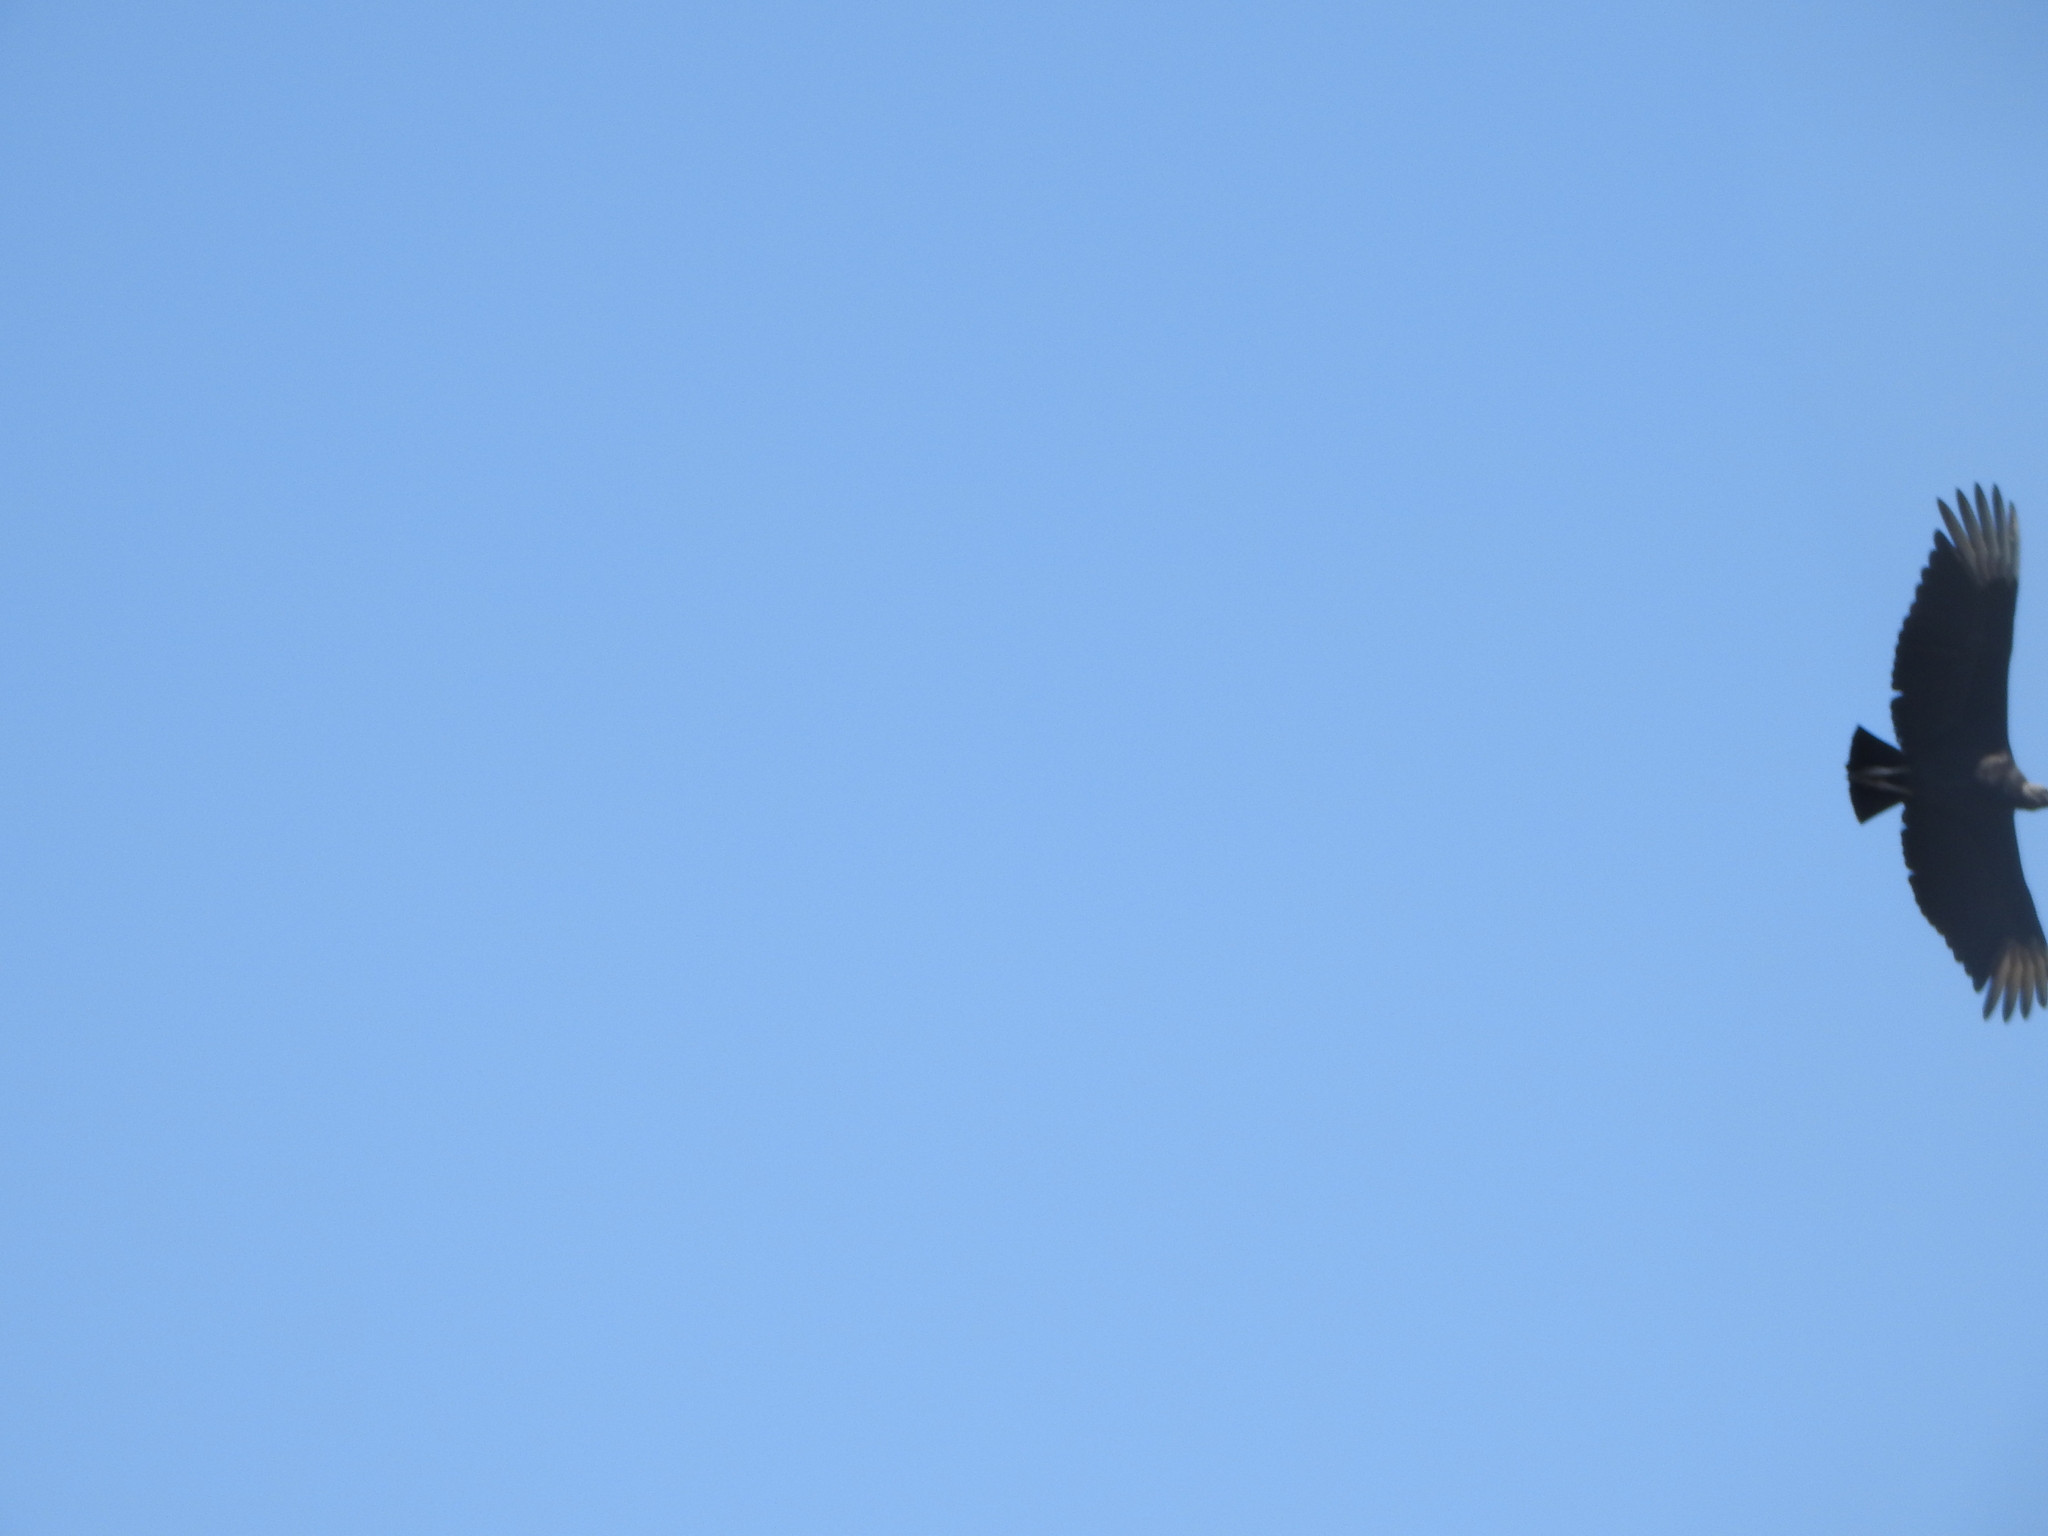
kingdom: Animalia
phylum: Chordata
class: Aves
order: Accipitriformes
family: Cathartidae
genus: Coragyps
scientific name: Coragyps atratus
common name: Black vulture
